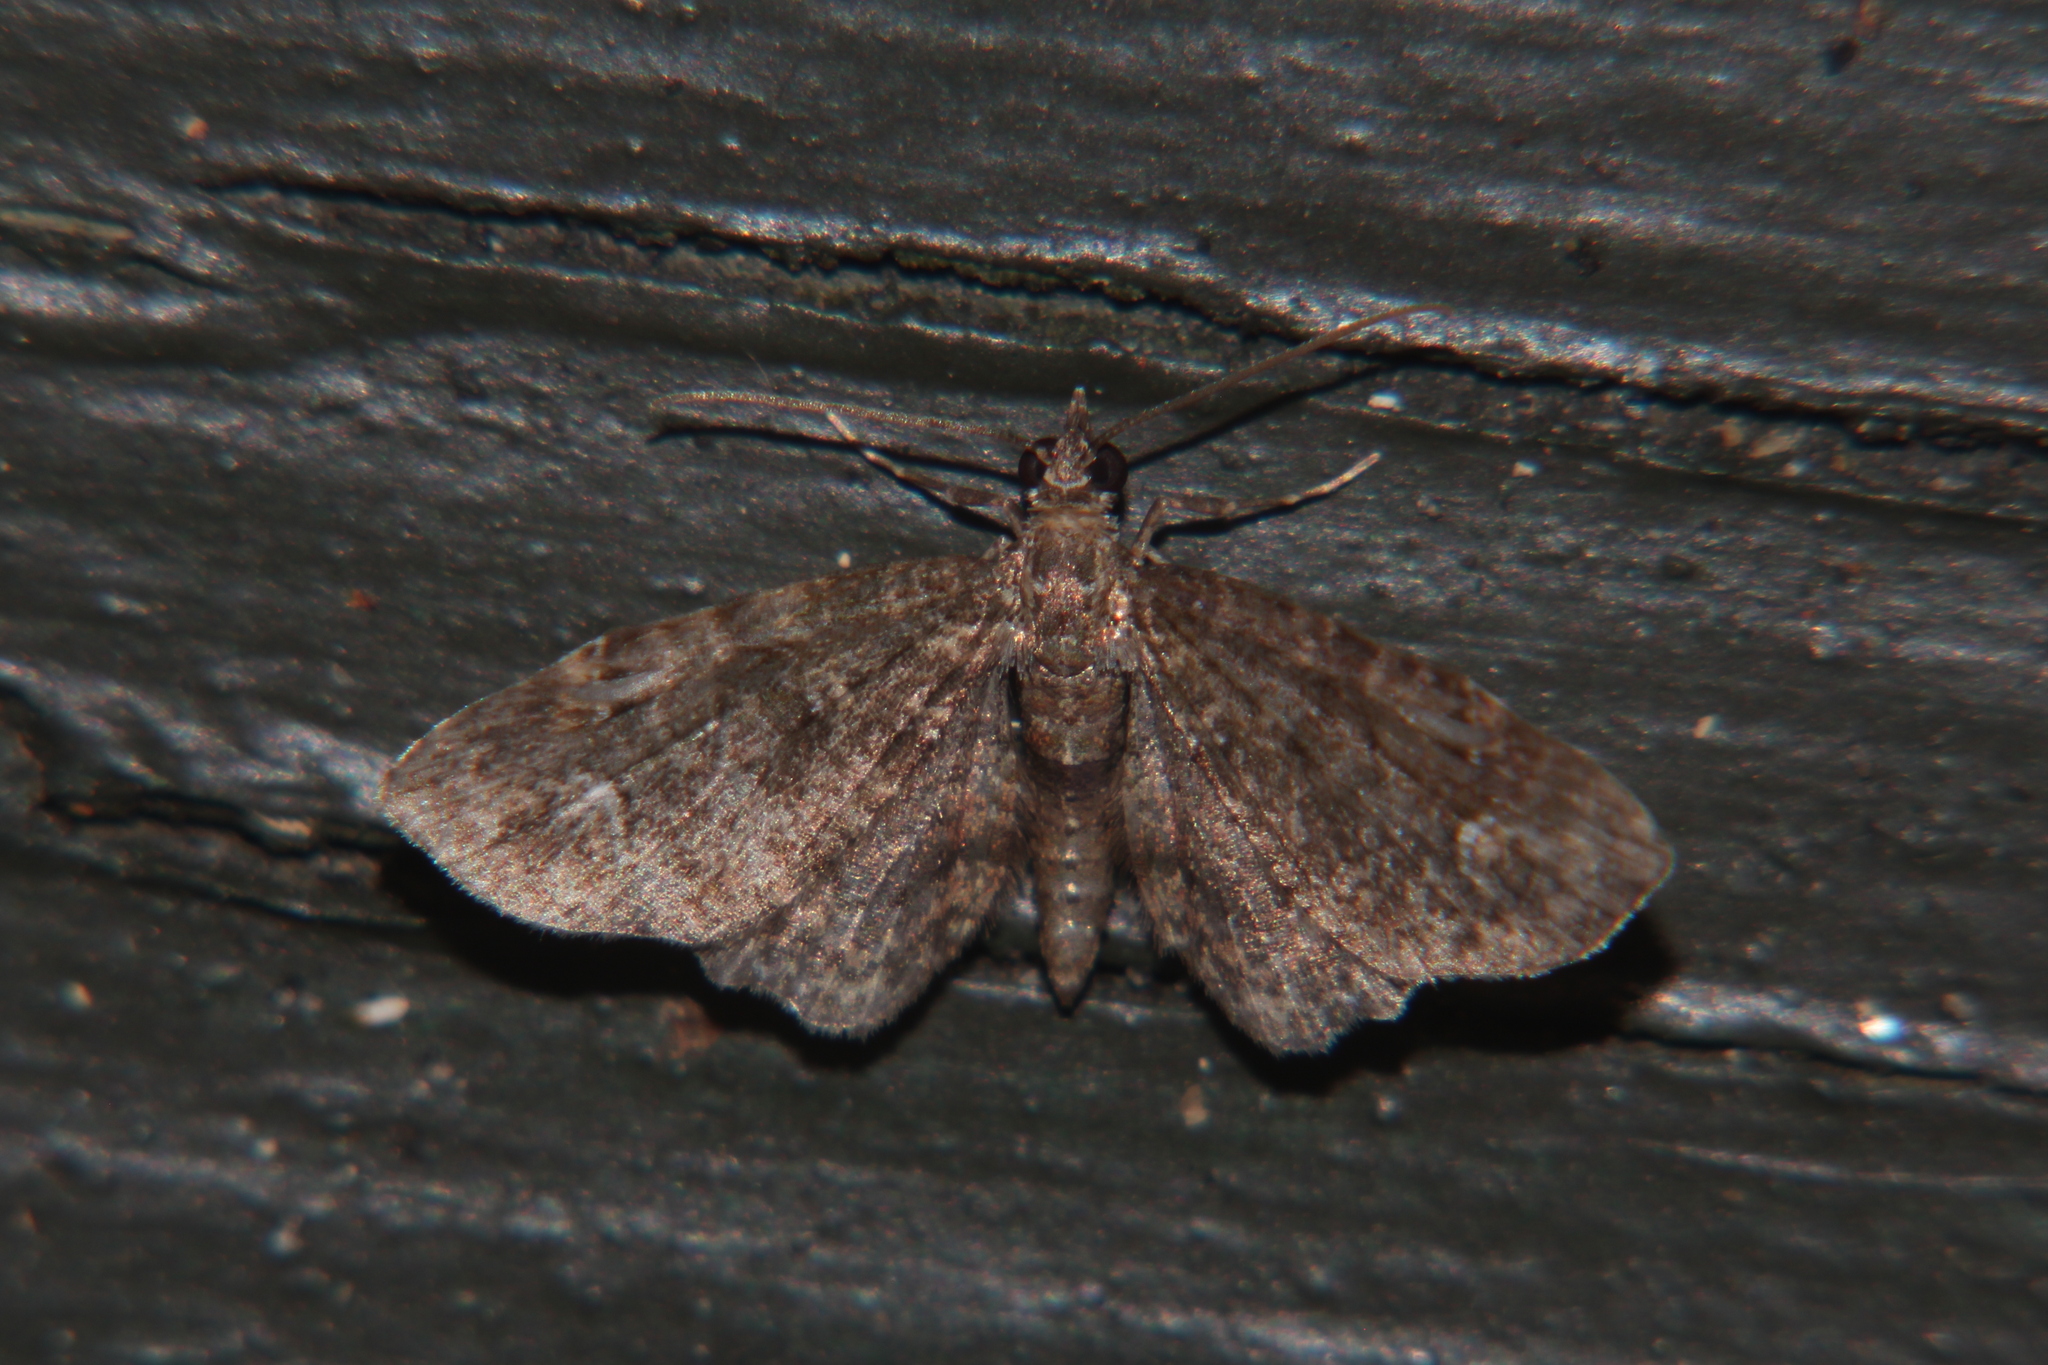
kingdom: Animalia
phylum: Arthropoda
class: Insecta
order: Lepidoptera
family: Geometridae
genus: Pasiphilodes
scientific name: Pasiphilodes testulata
